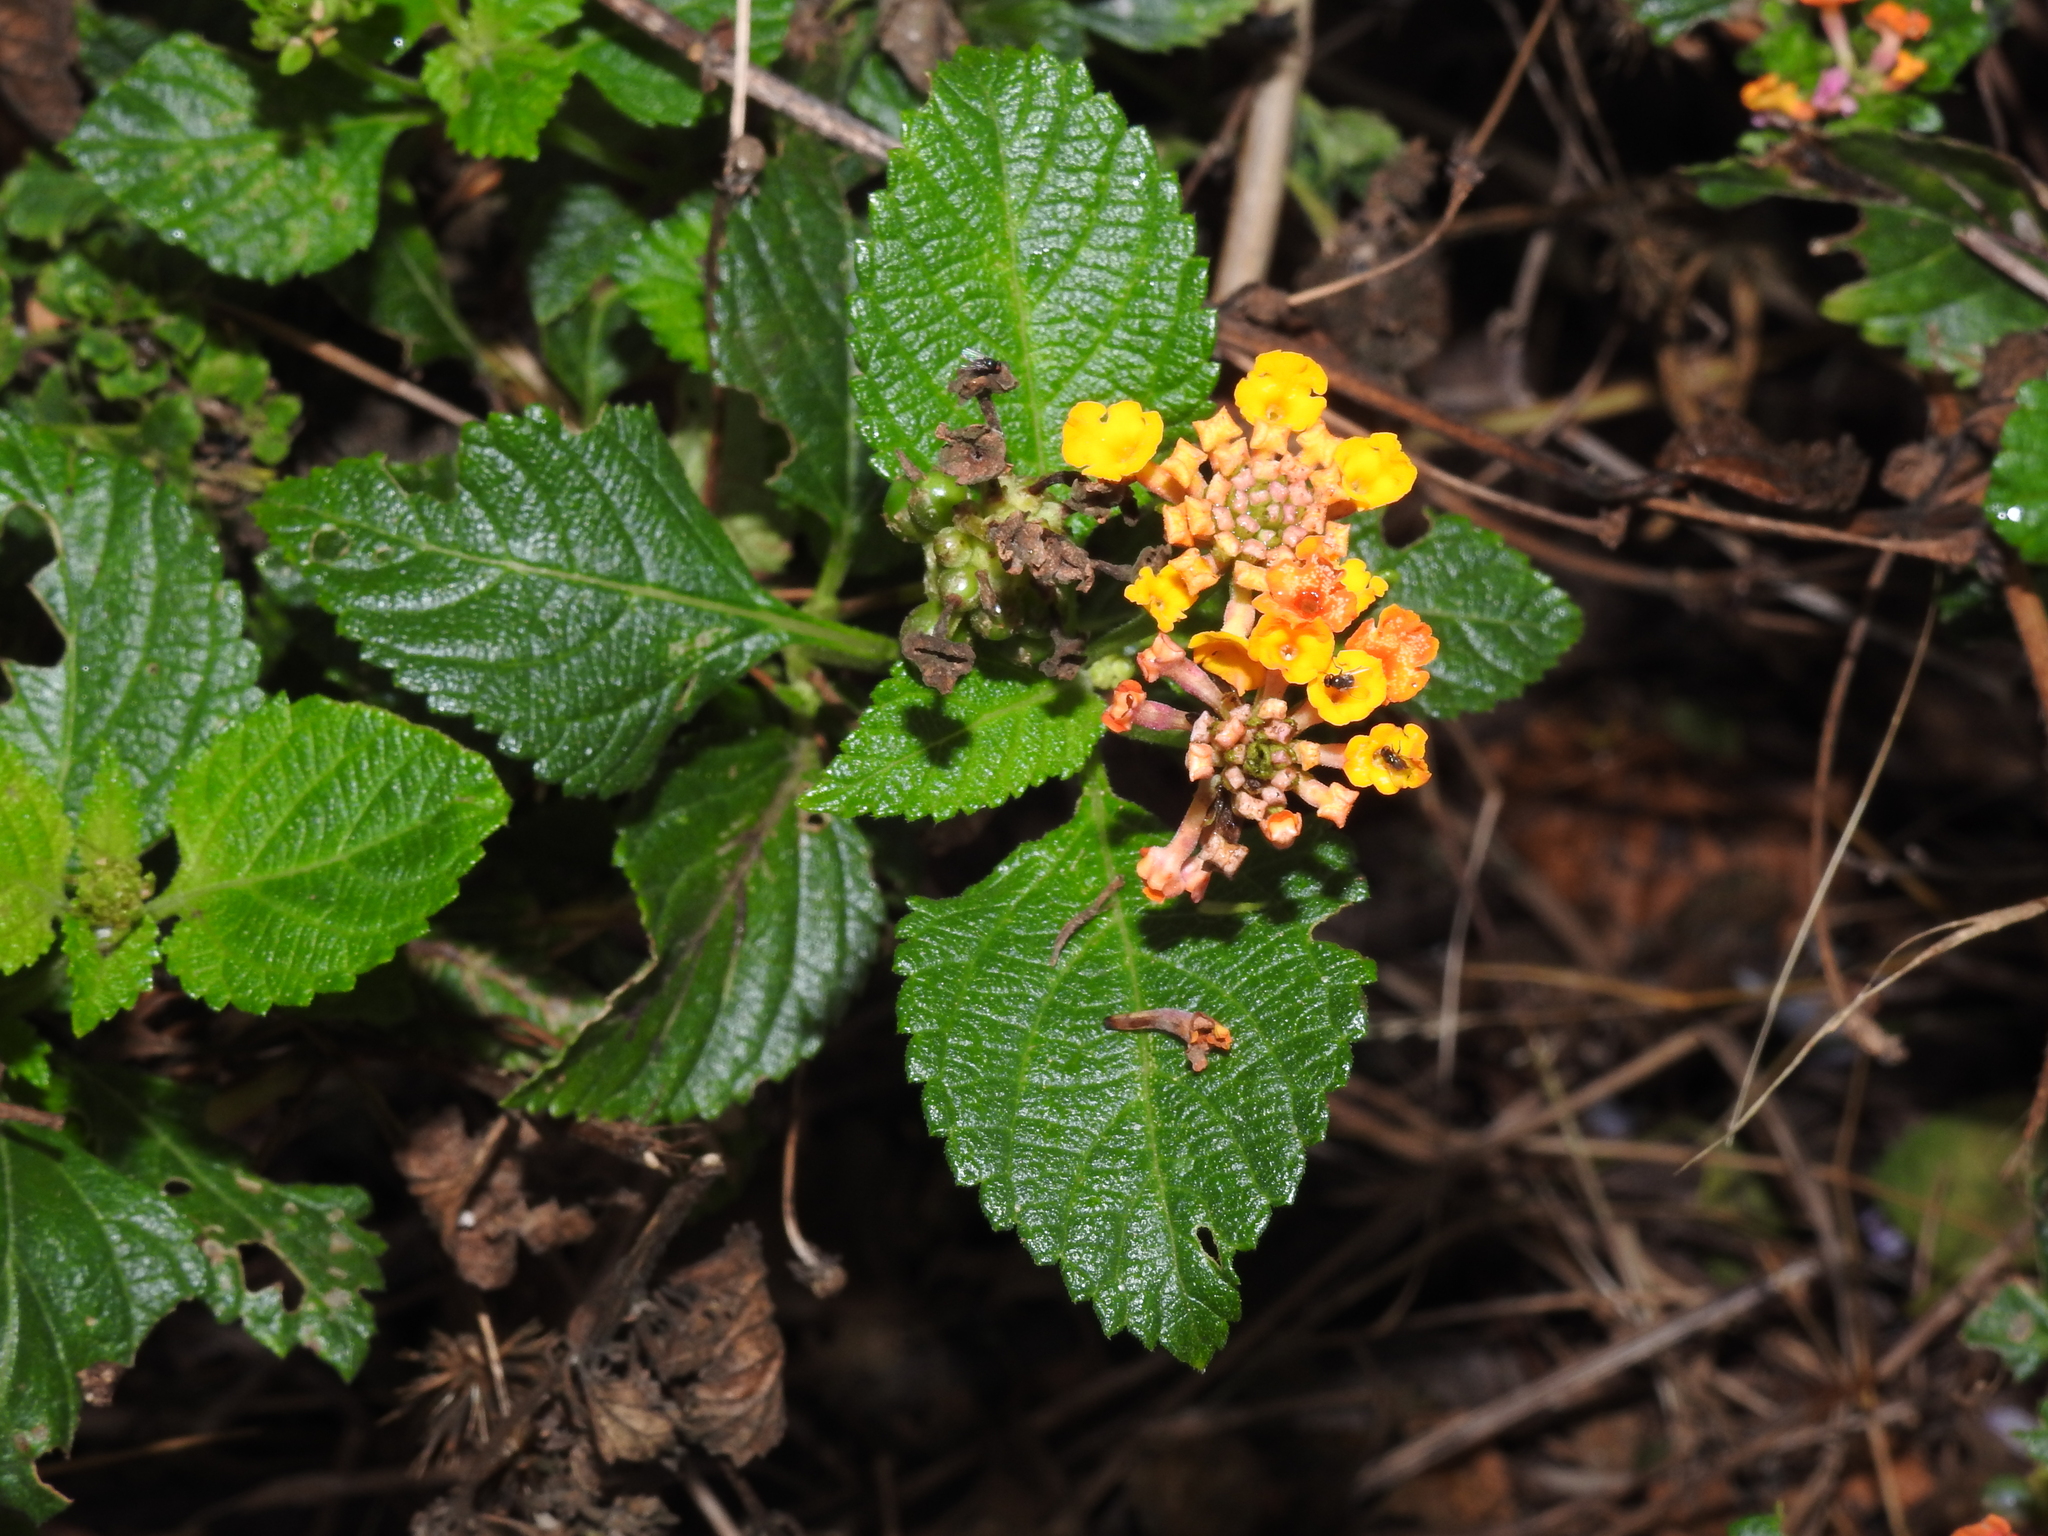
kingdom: Plantae
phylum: Tracheophyta
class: Magnoliopsida
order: Lamiales
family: Verbenaceae
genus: Lantana
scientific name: Lantana strigocamara
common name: Lantana
